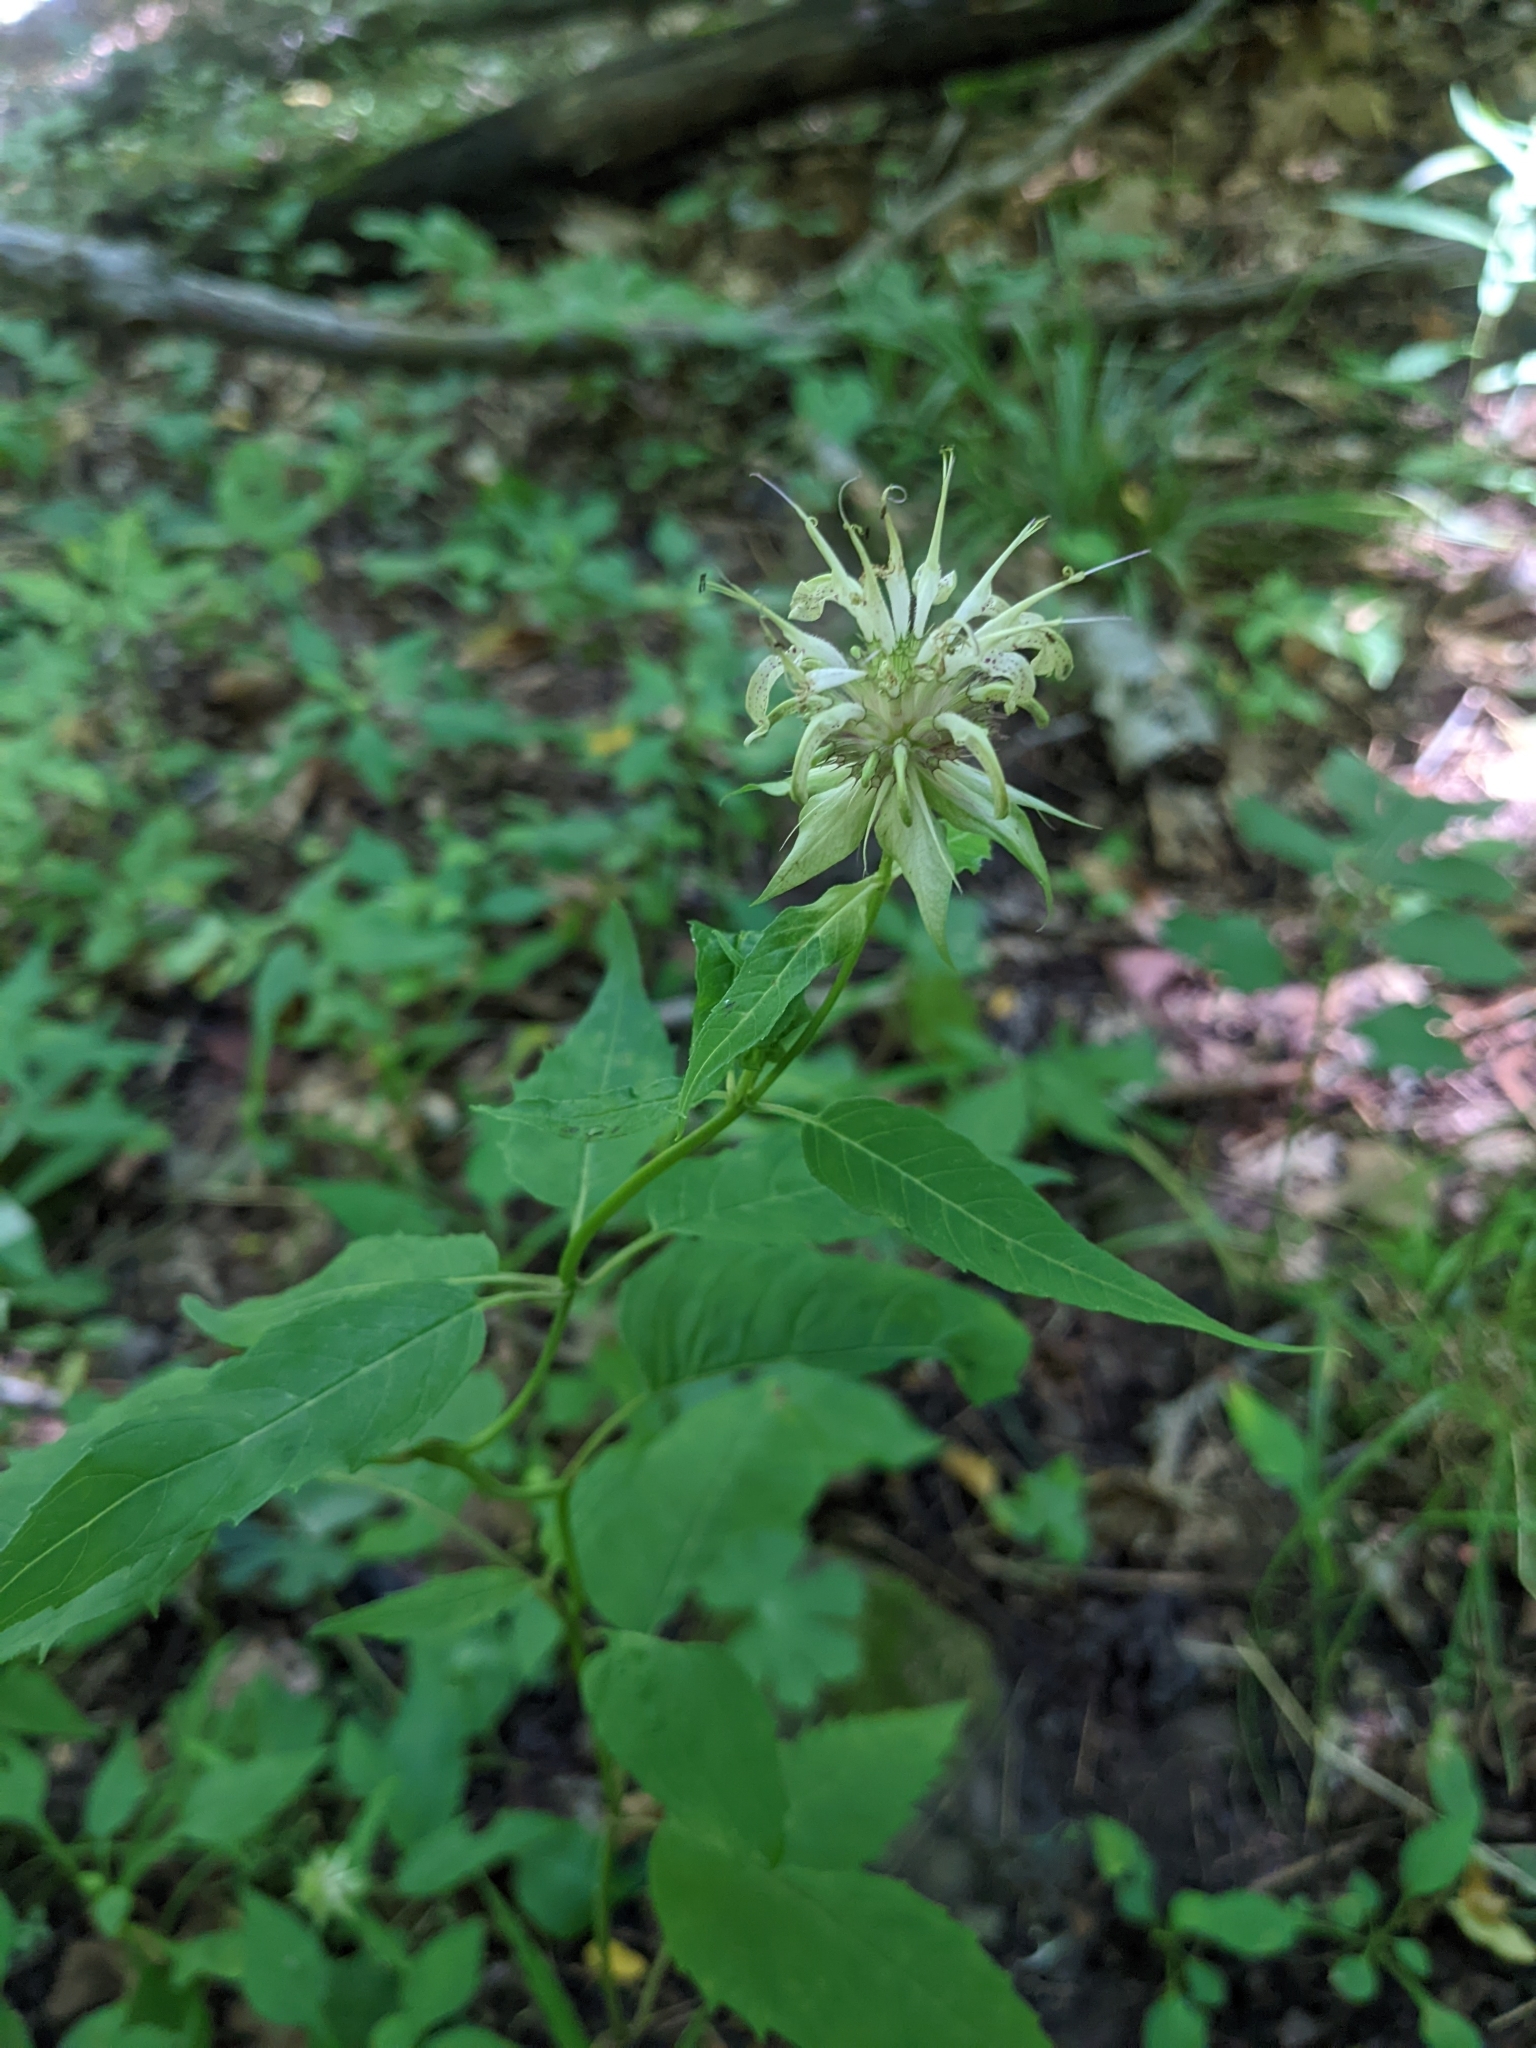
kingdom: Plantae
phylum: Tracheophyta
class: Magnoliopsida
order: Lamiales
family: Lamiaceae
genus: Monarda
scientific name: Monarda clinopodia
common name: Basil beebalm
